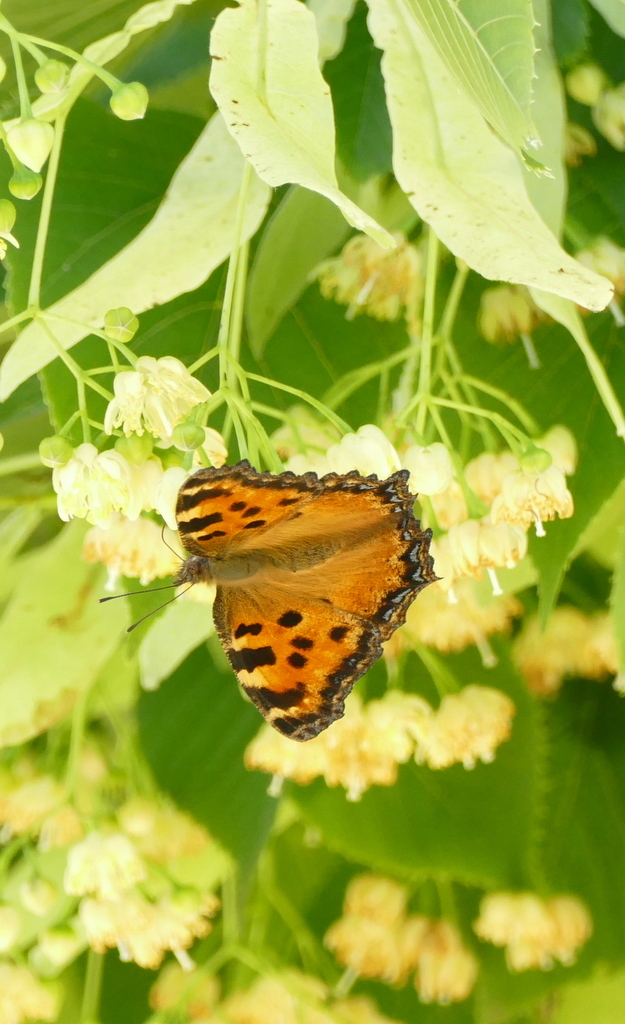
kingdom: Animalia
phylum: Arthropoda
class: Insecta
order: Lepidoptera
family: Nymphalidae
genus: Nymphalis
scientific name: Nymphalis polychloros
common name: Large tortoiseshell
